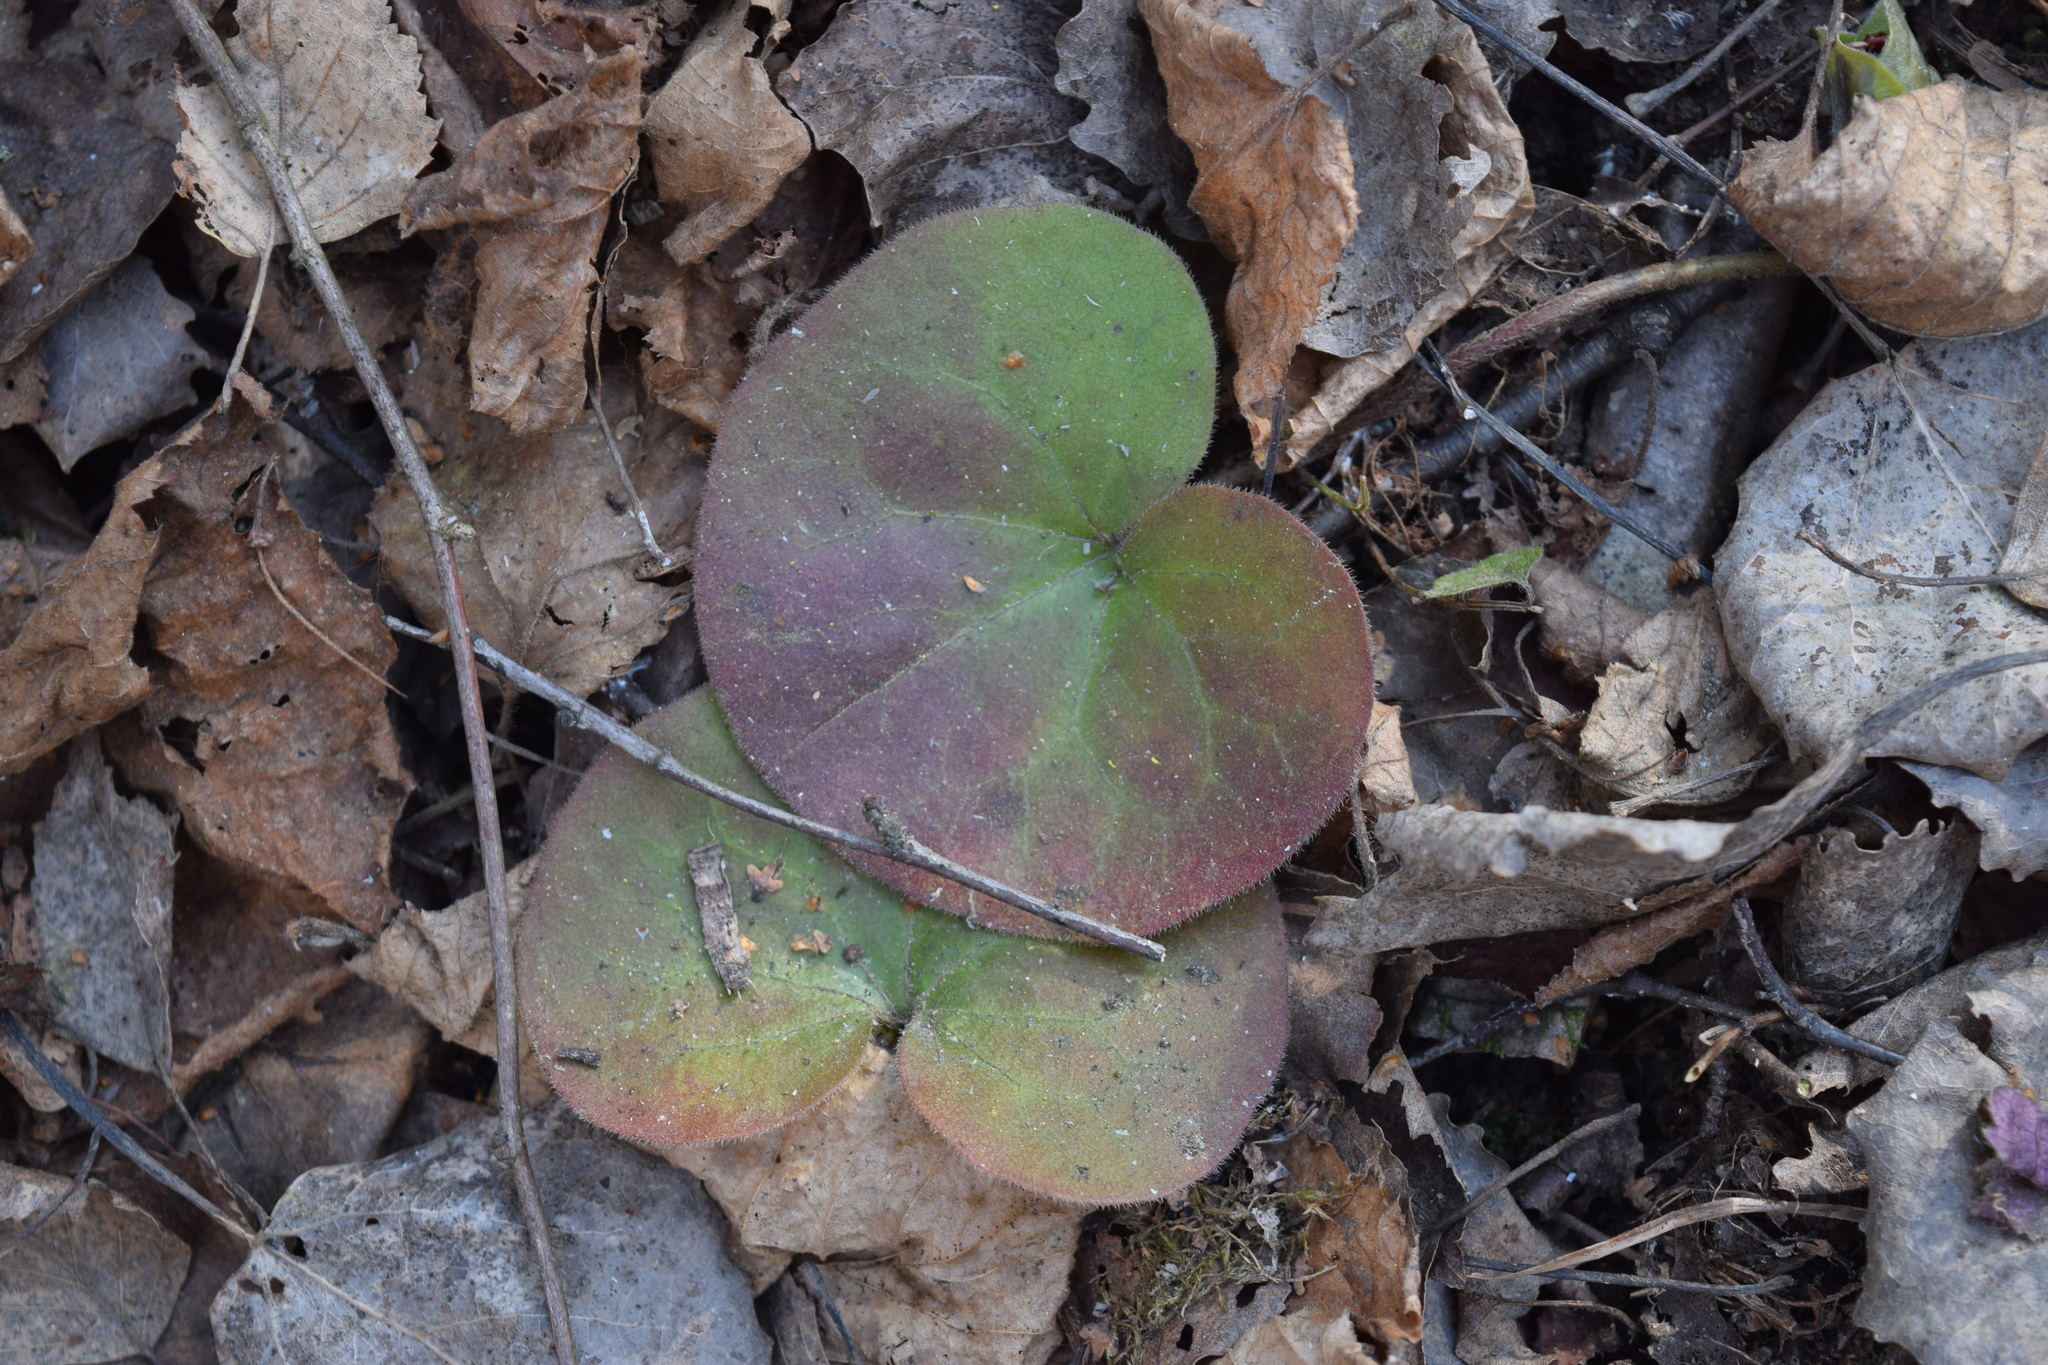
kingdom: Plantae
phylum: Tracheophyta
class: Magnoliopsida
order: Piperales
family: Aristolochiaceae
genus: Asarum
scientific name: Asarum europaeum
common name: Asarabacca
